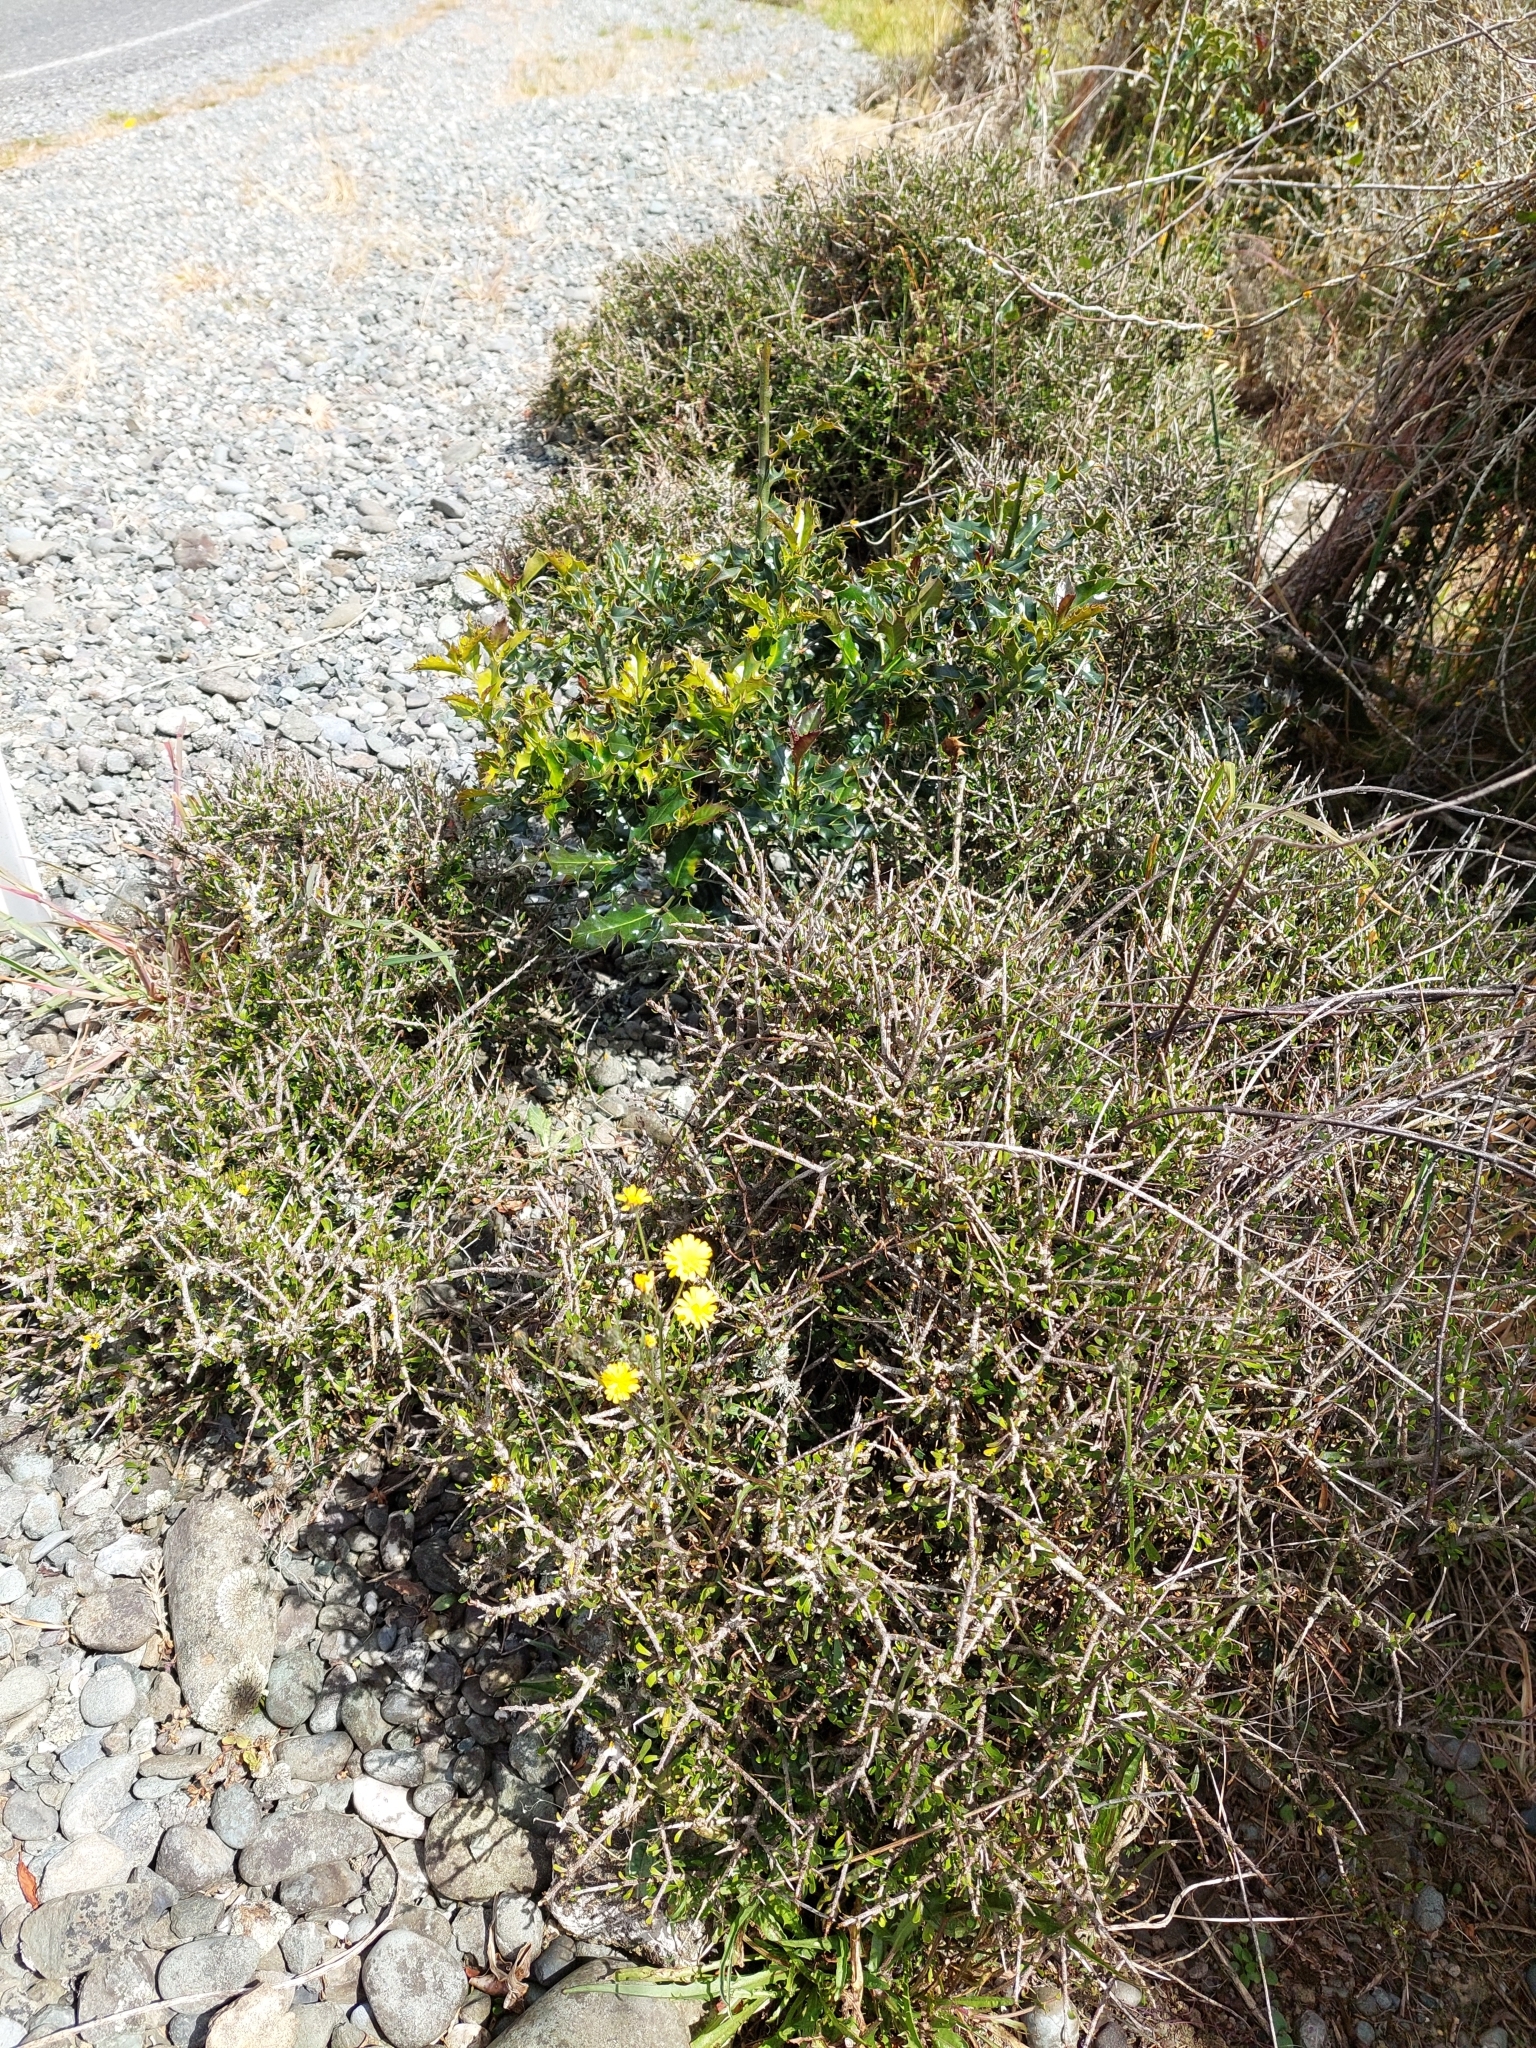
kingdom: Plantae
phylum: Tracheophyta
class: Magnoliopsida
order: Malpighiales
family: Violaceae
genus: Melicytus
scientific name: Melicytus alpinus
